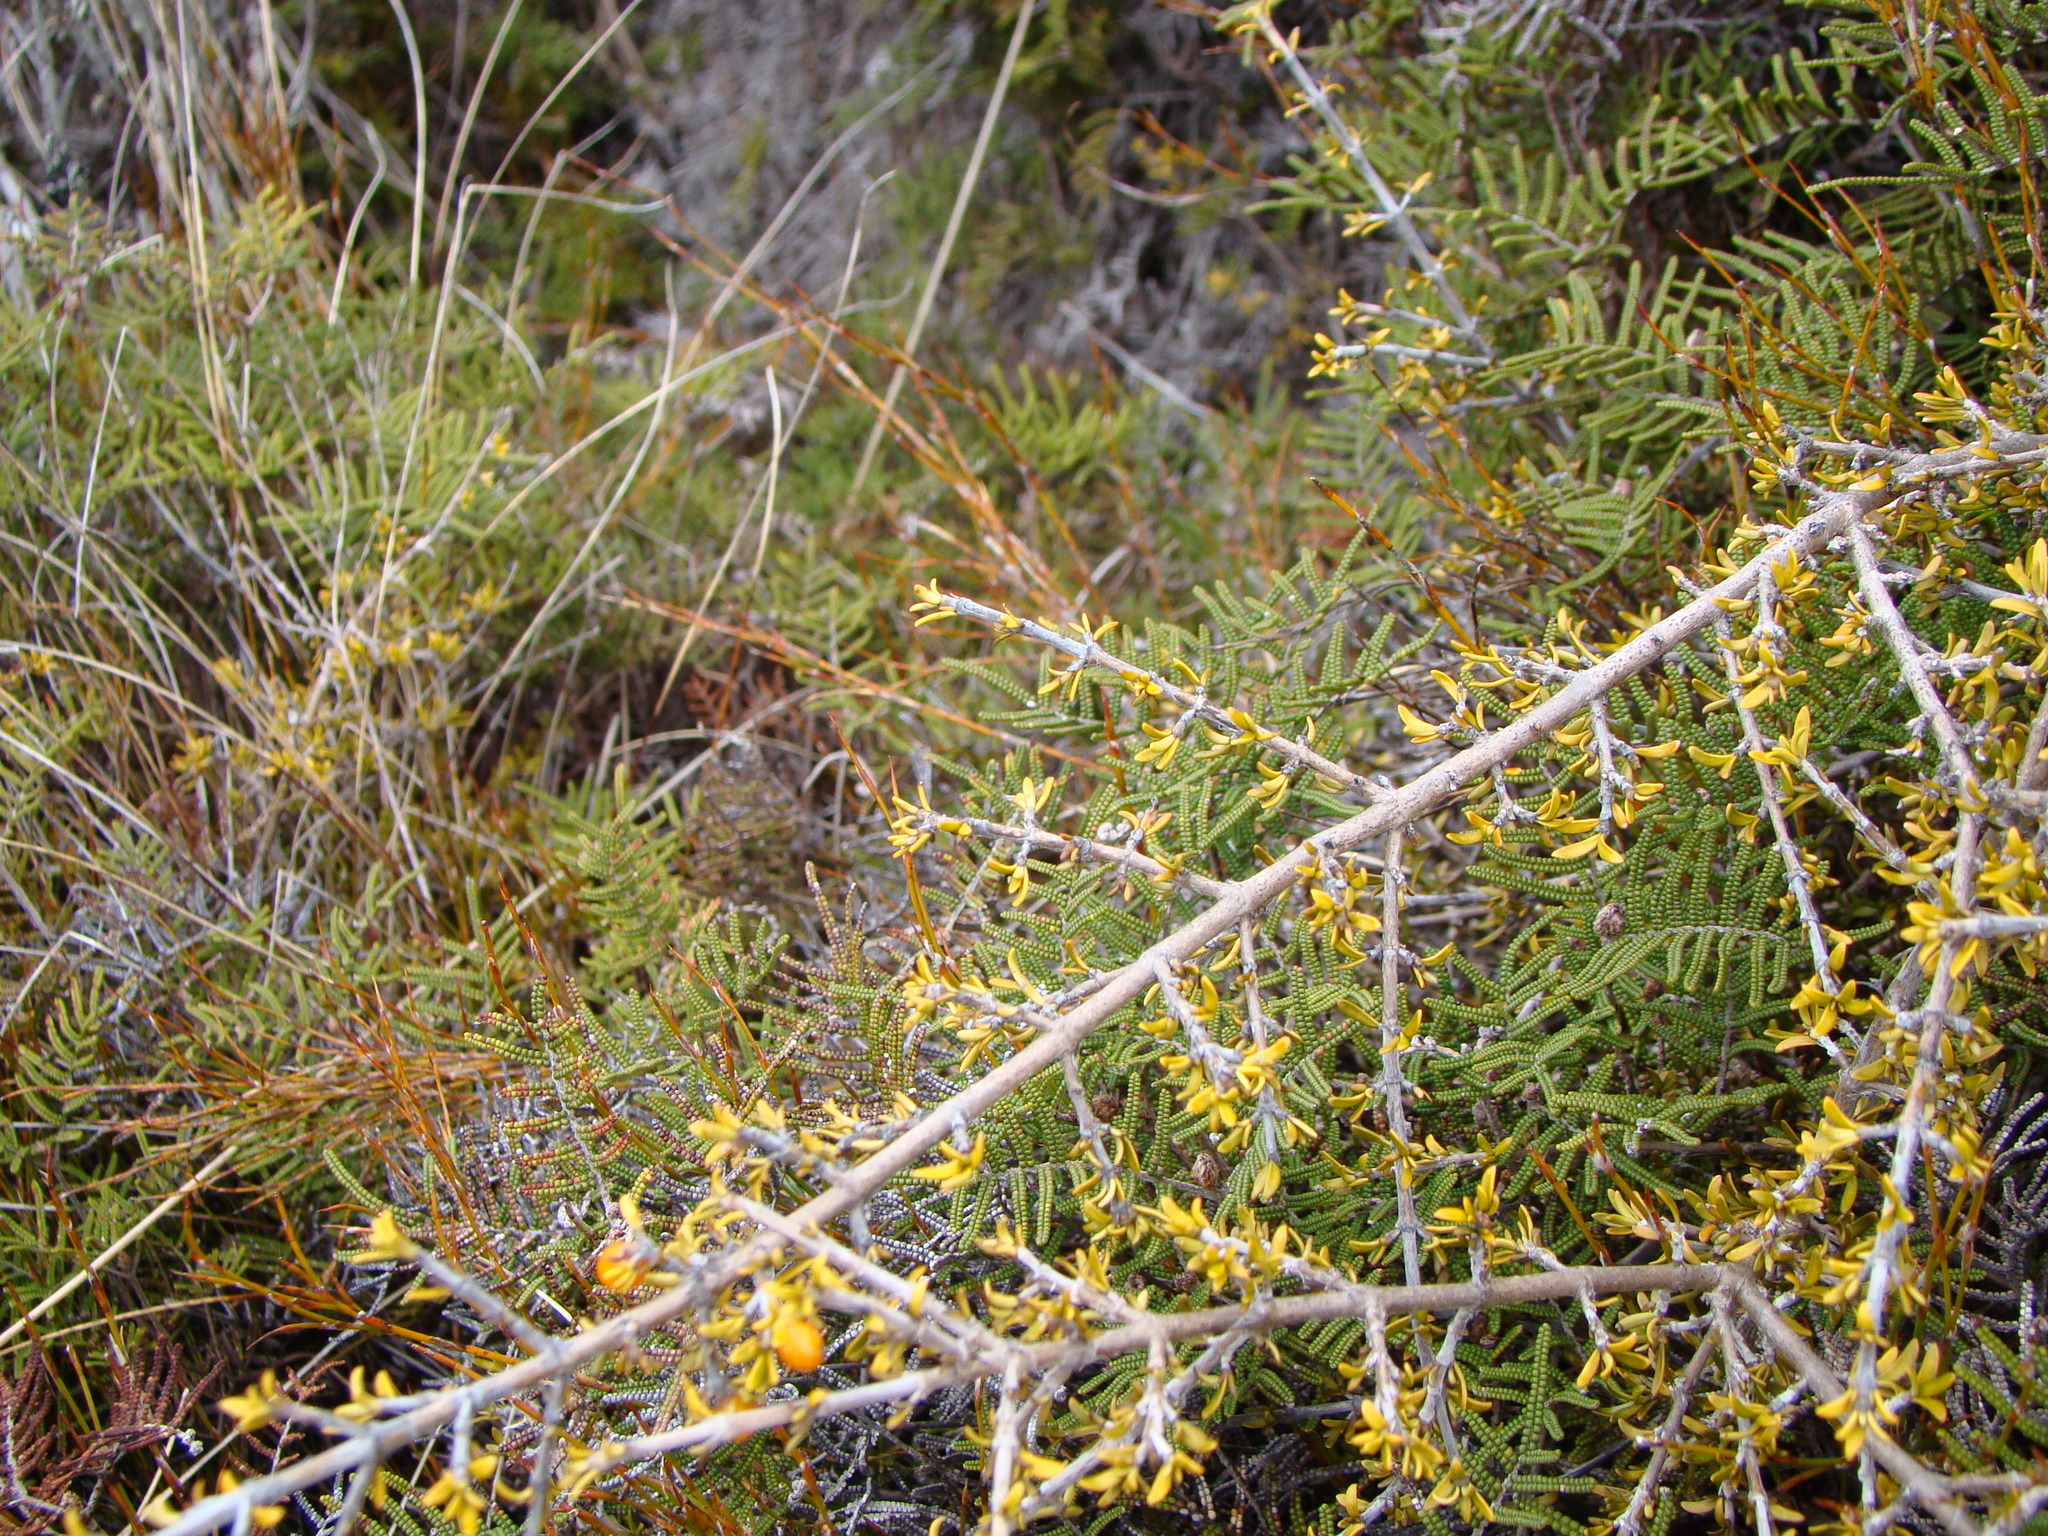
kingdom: Plantae
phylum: Tracheophyta
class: Magnoliopsida
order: Gentianales
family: Rubiaceae
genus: Coprosma
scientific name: Coprosma cheesemanii
